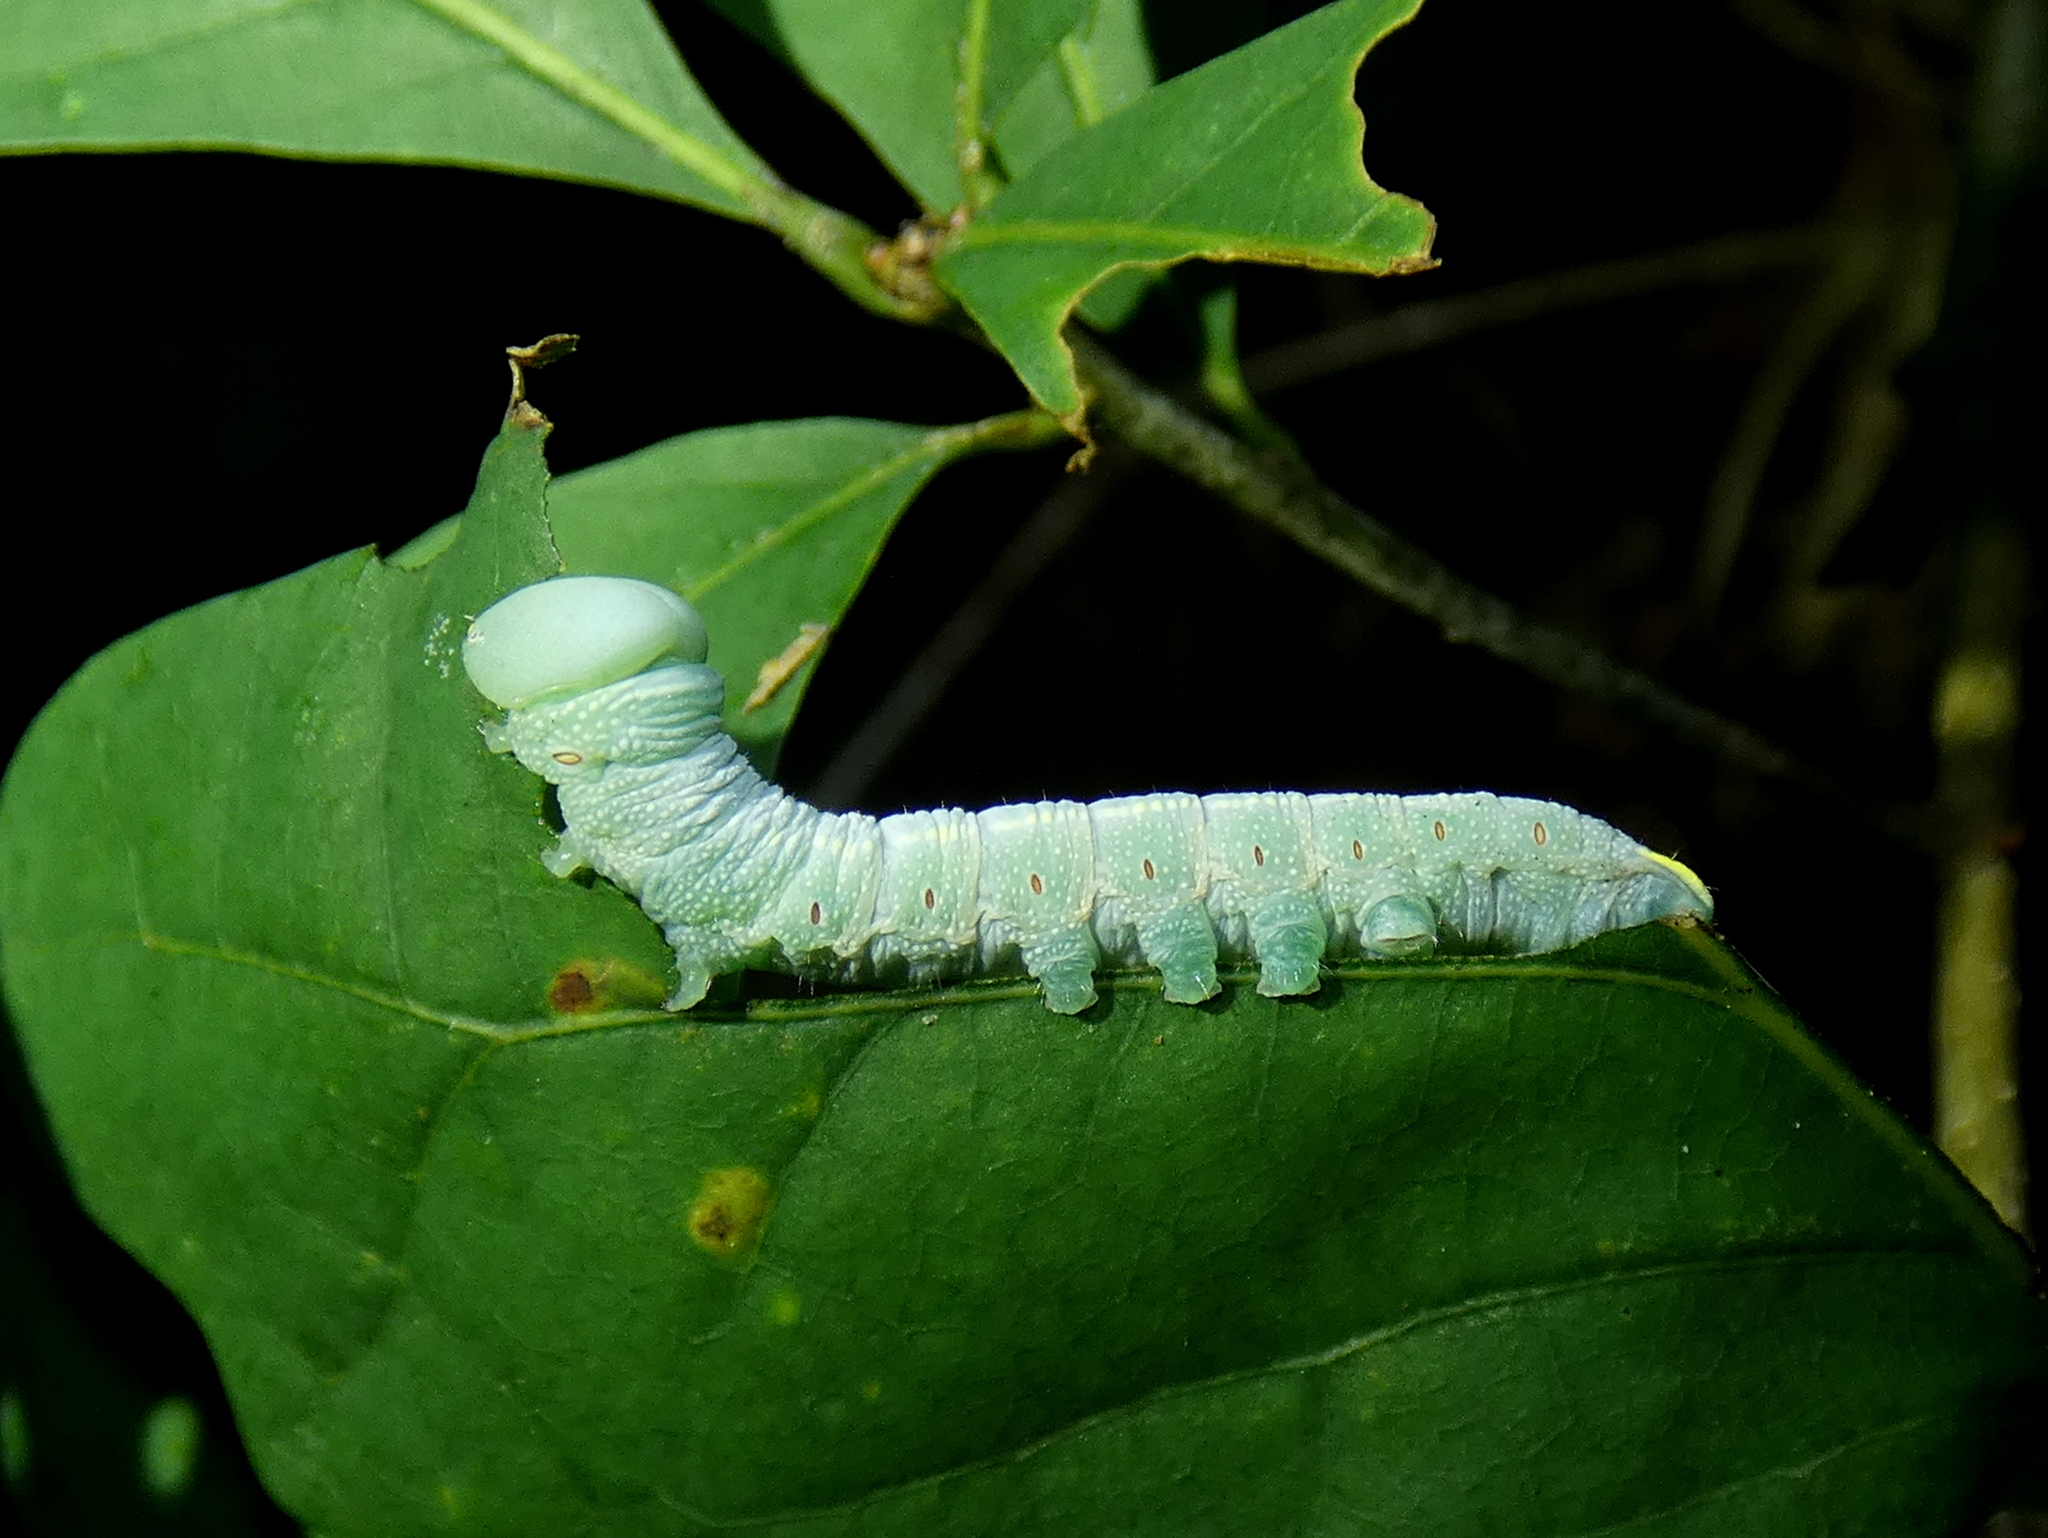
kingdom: Animalia
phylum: Arthropoda
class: Insecta
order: Lepidoptera
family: Notodontidae
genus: Nadata
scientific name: Nadata gibbosa
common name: White-dotted prominent
